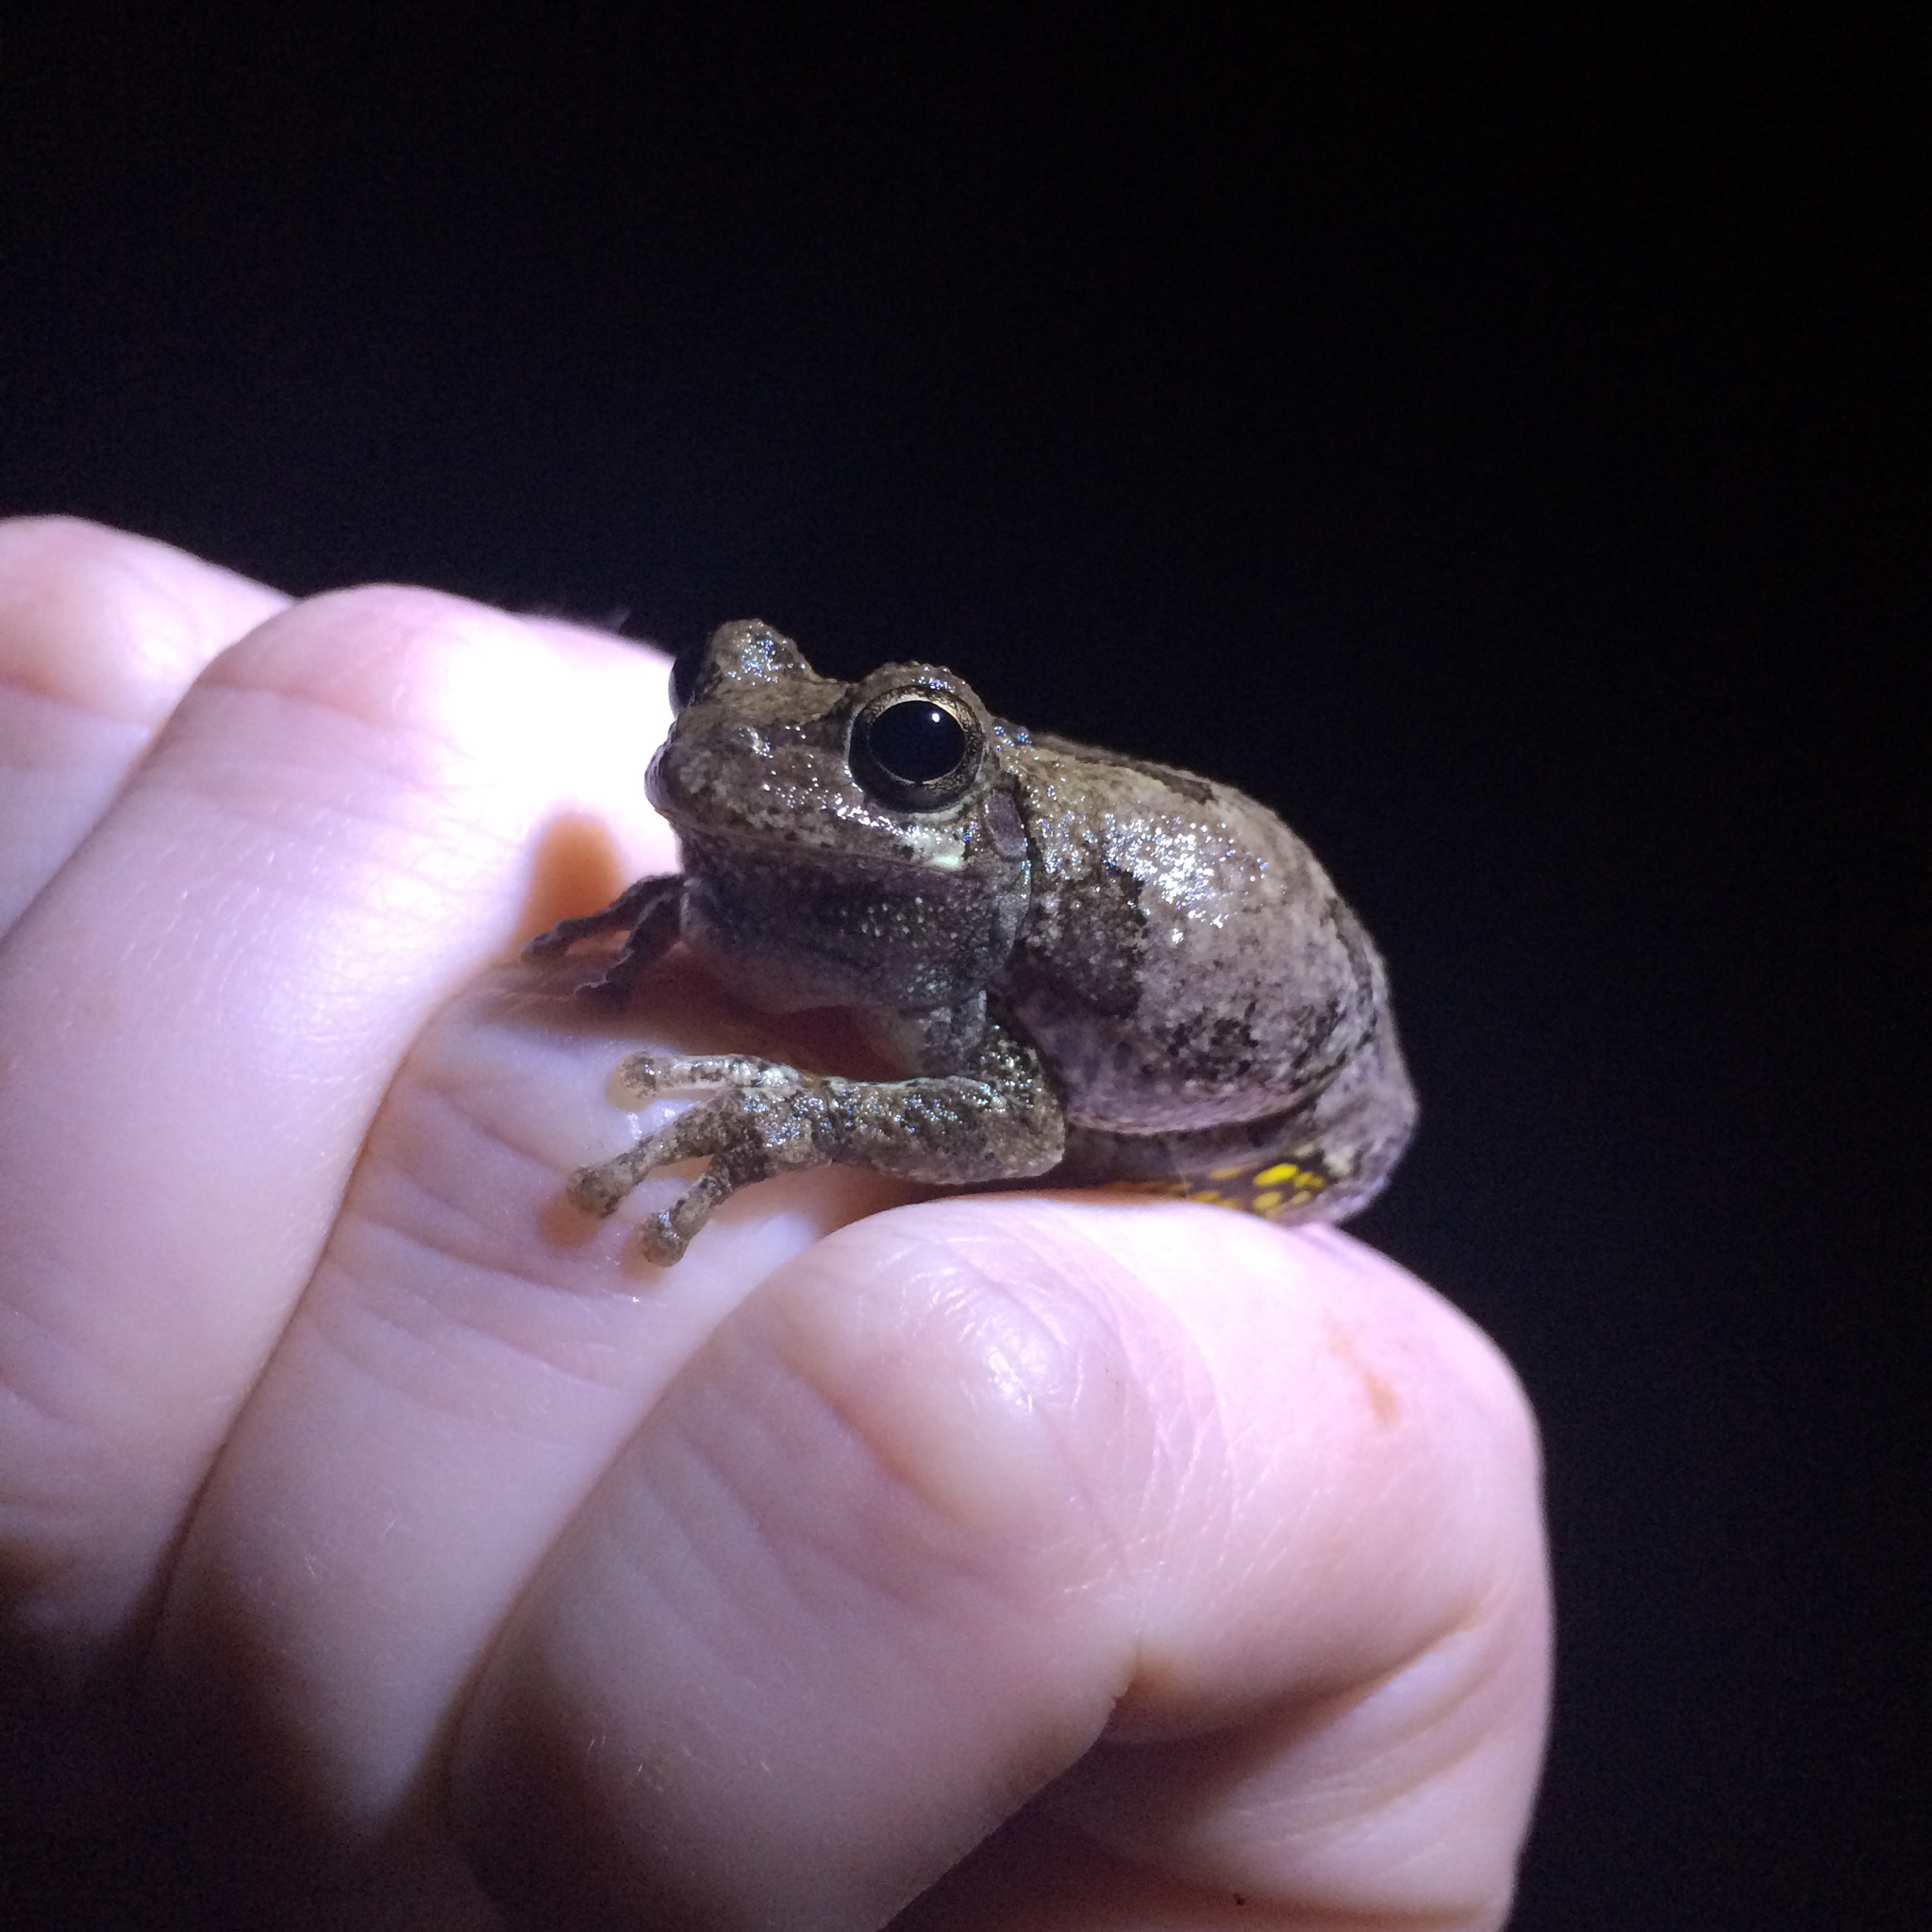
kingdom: Animalia
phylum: Chordata
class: Amphibia
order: Anura
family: Hylidae
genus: Dryophytes
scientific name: Dryophytes versicolor
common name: Gray treefrog
